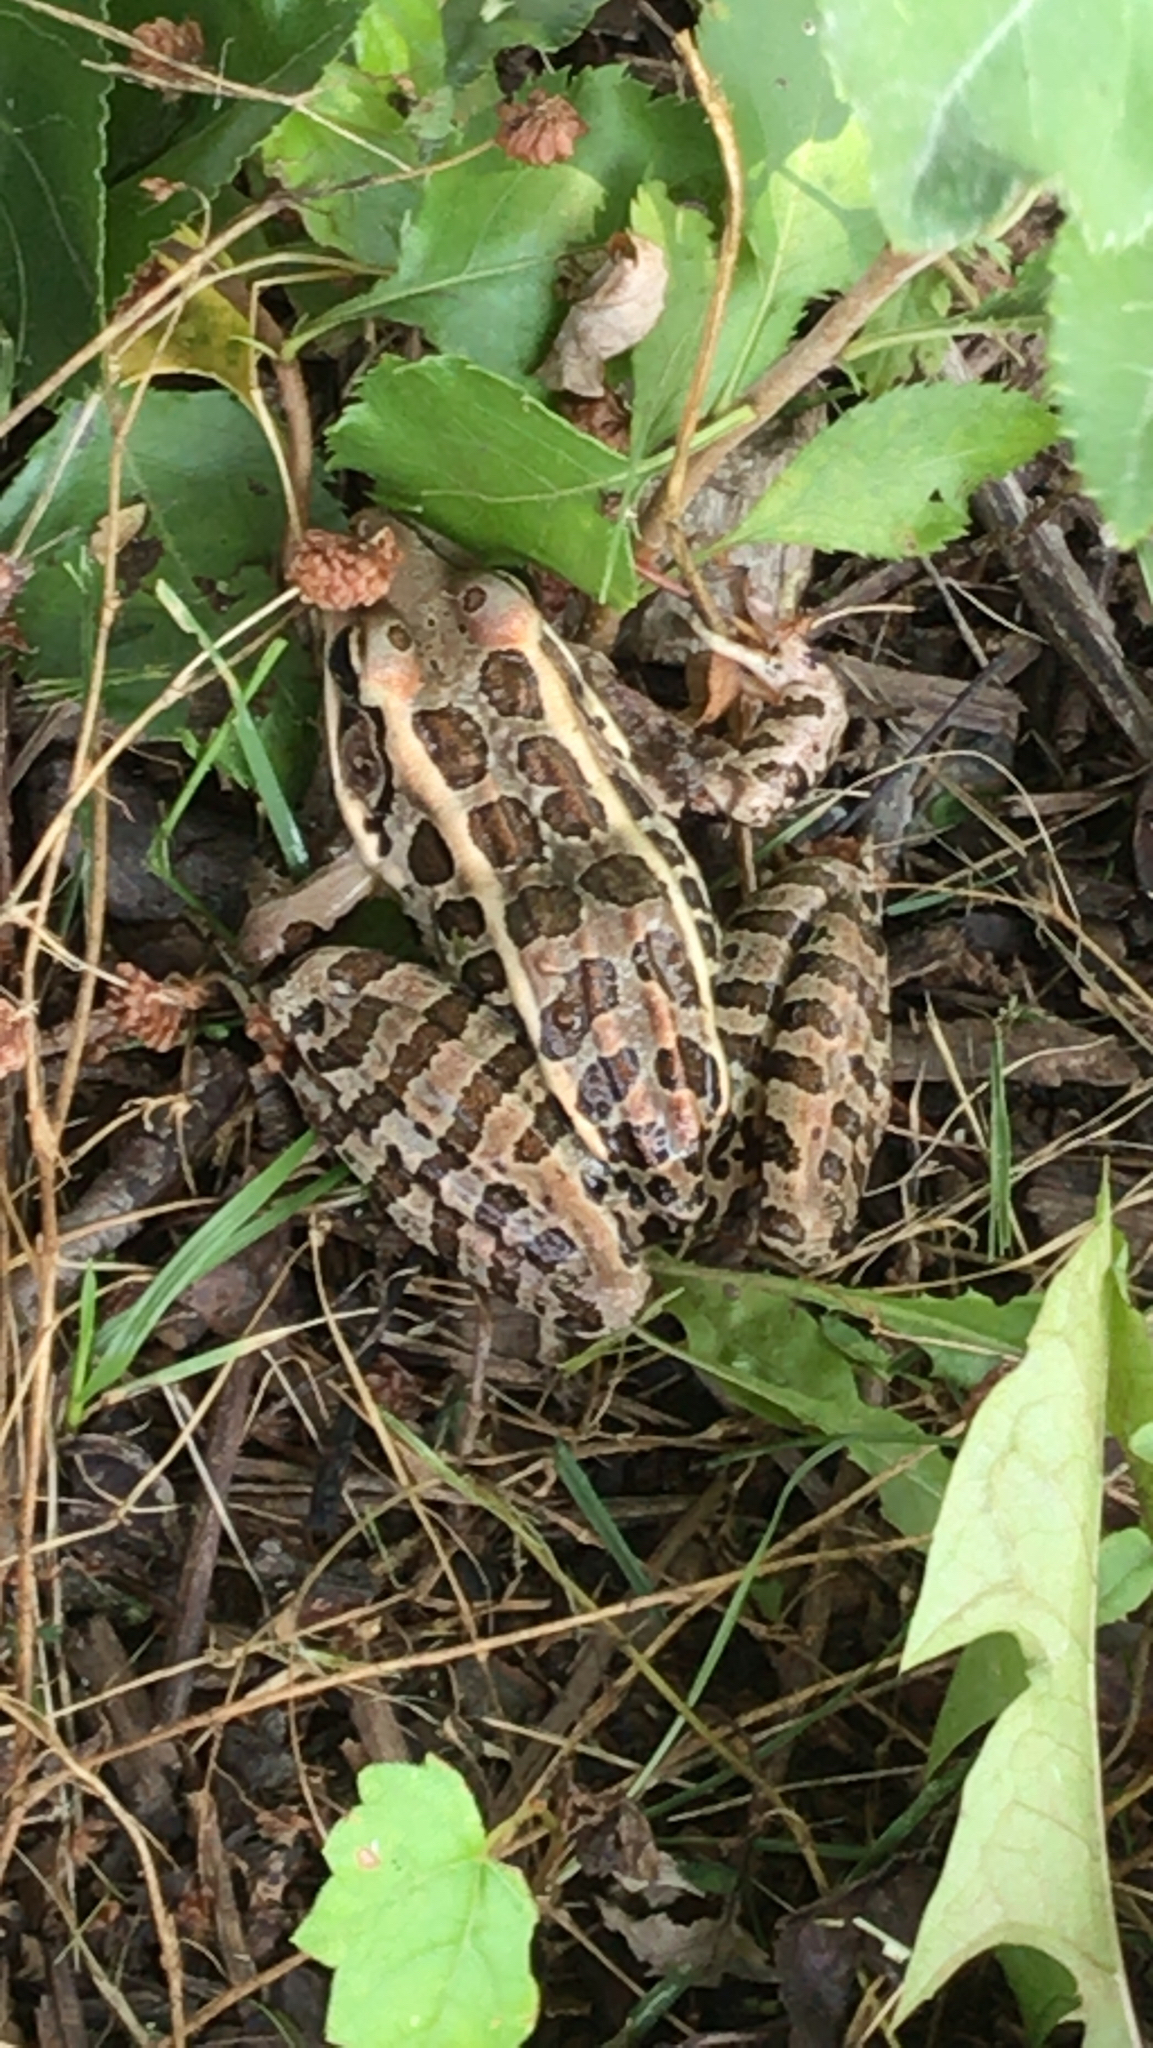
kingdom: Animalia
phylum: Chordata
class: Amphibia
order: Anura
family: Ranidae
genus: Lithobates
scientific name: Lithobates palustris
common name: Pickerel frog
